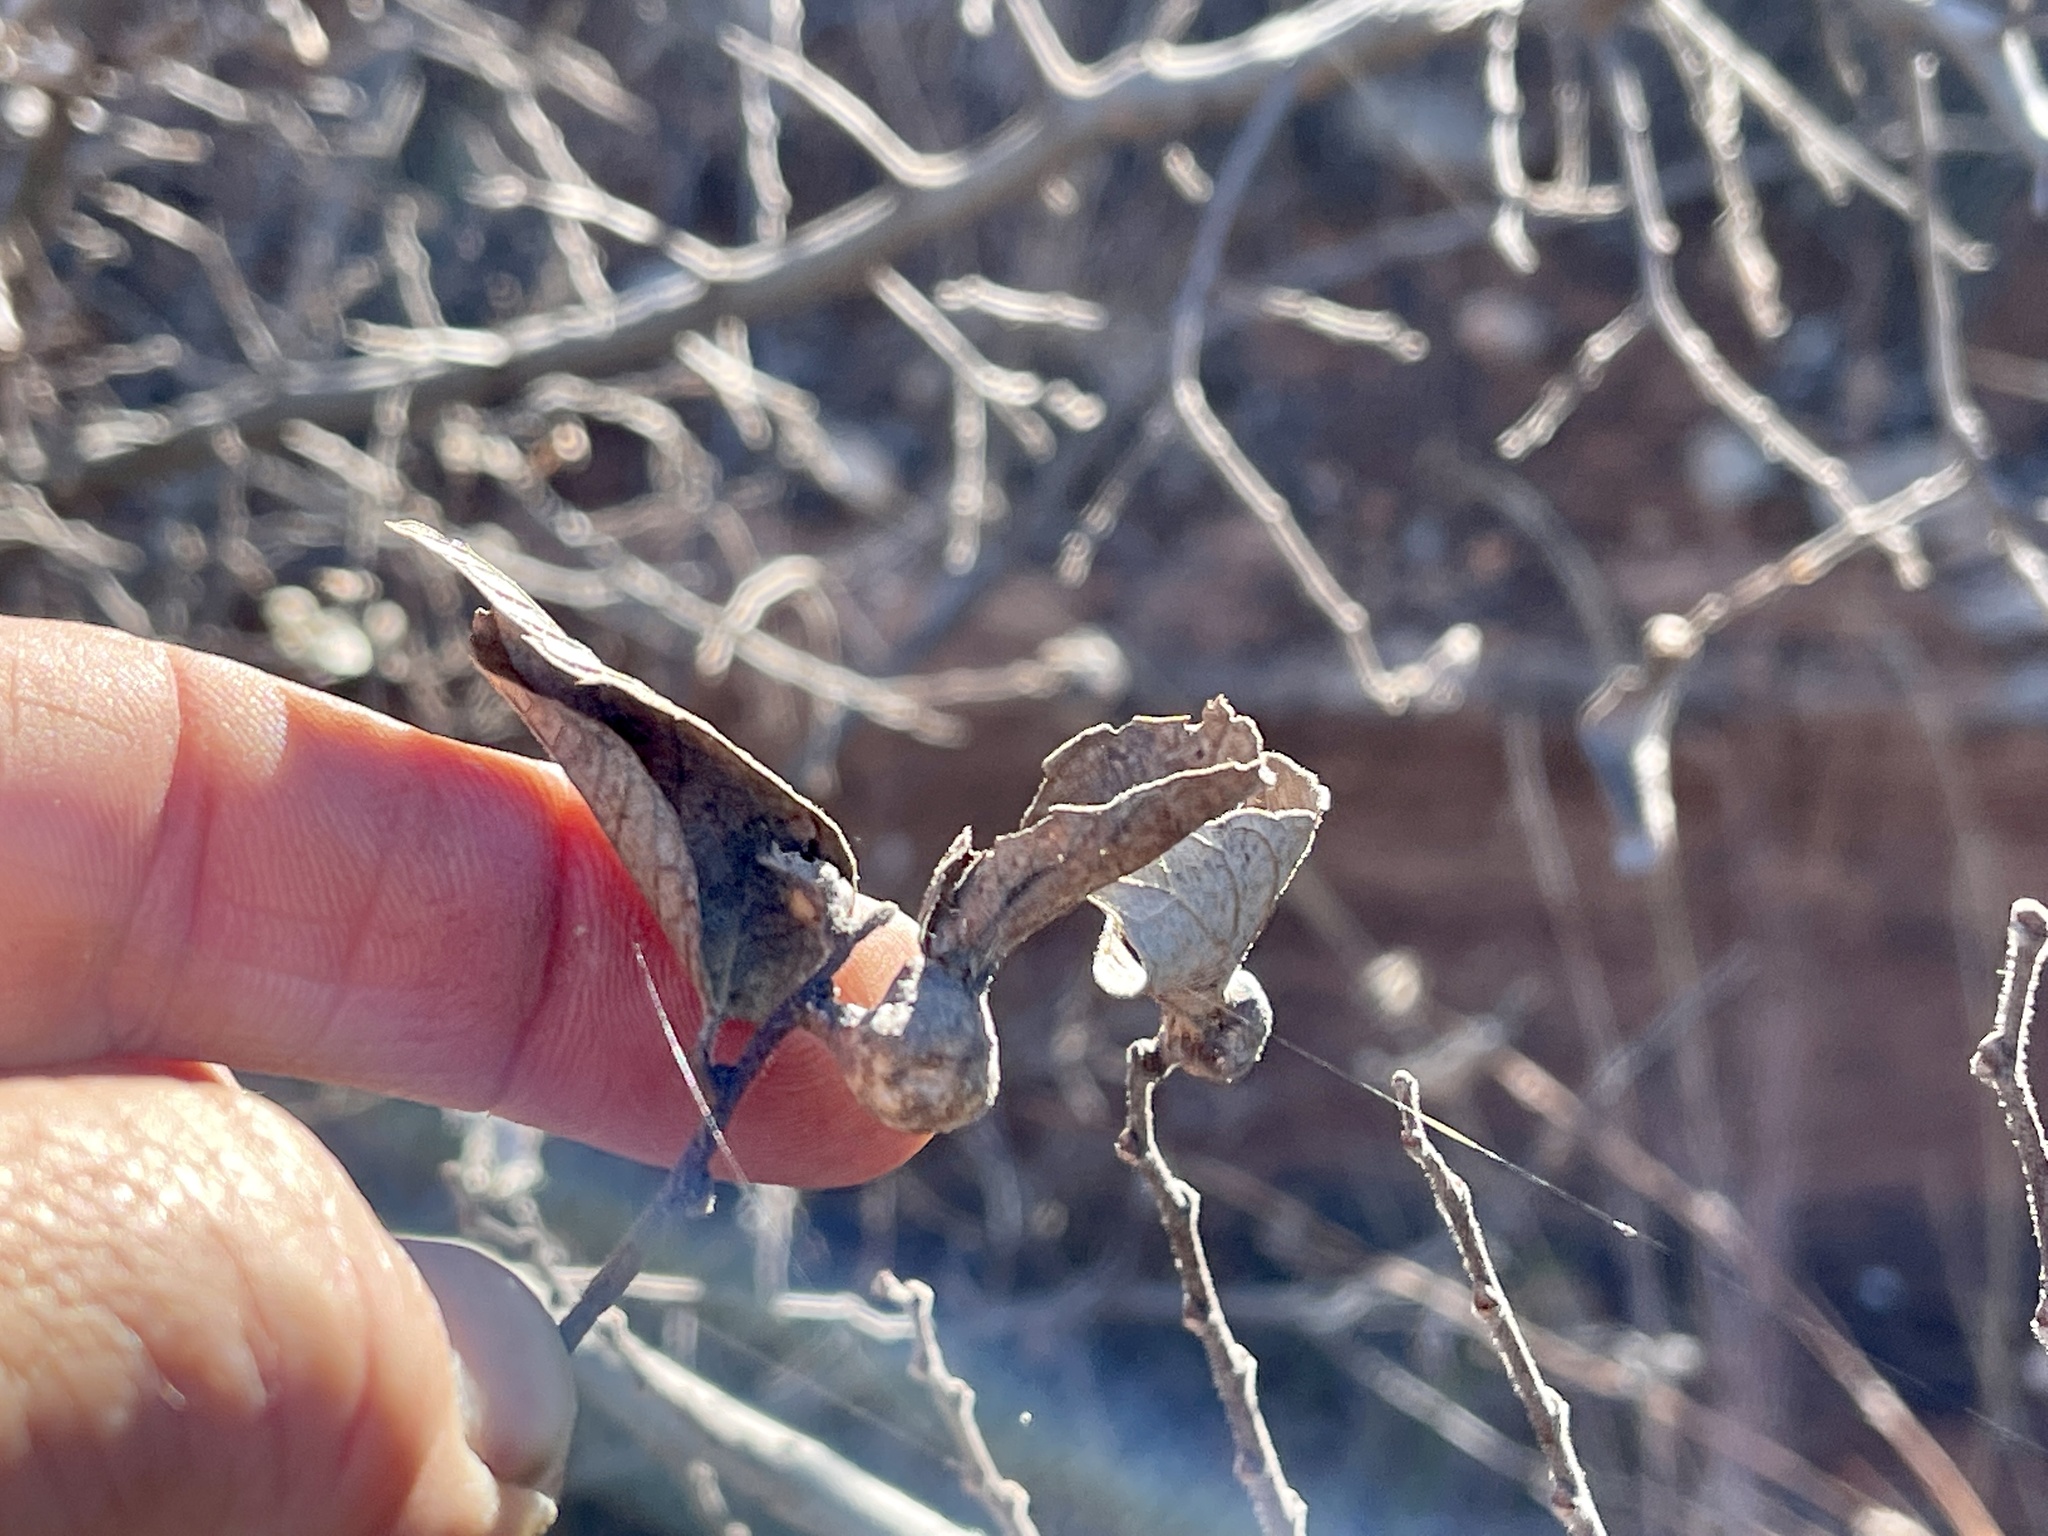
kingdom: Plantae
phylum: Tracheophyta
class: Magnoliopsida
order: Rosales
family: Cannabaceae
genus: Celtis
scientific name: Celtis reticulata
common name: Netleaf hackberry
